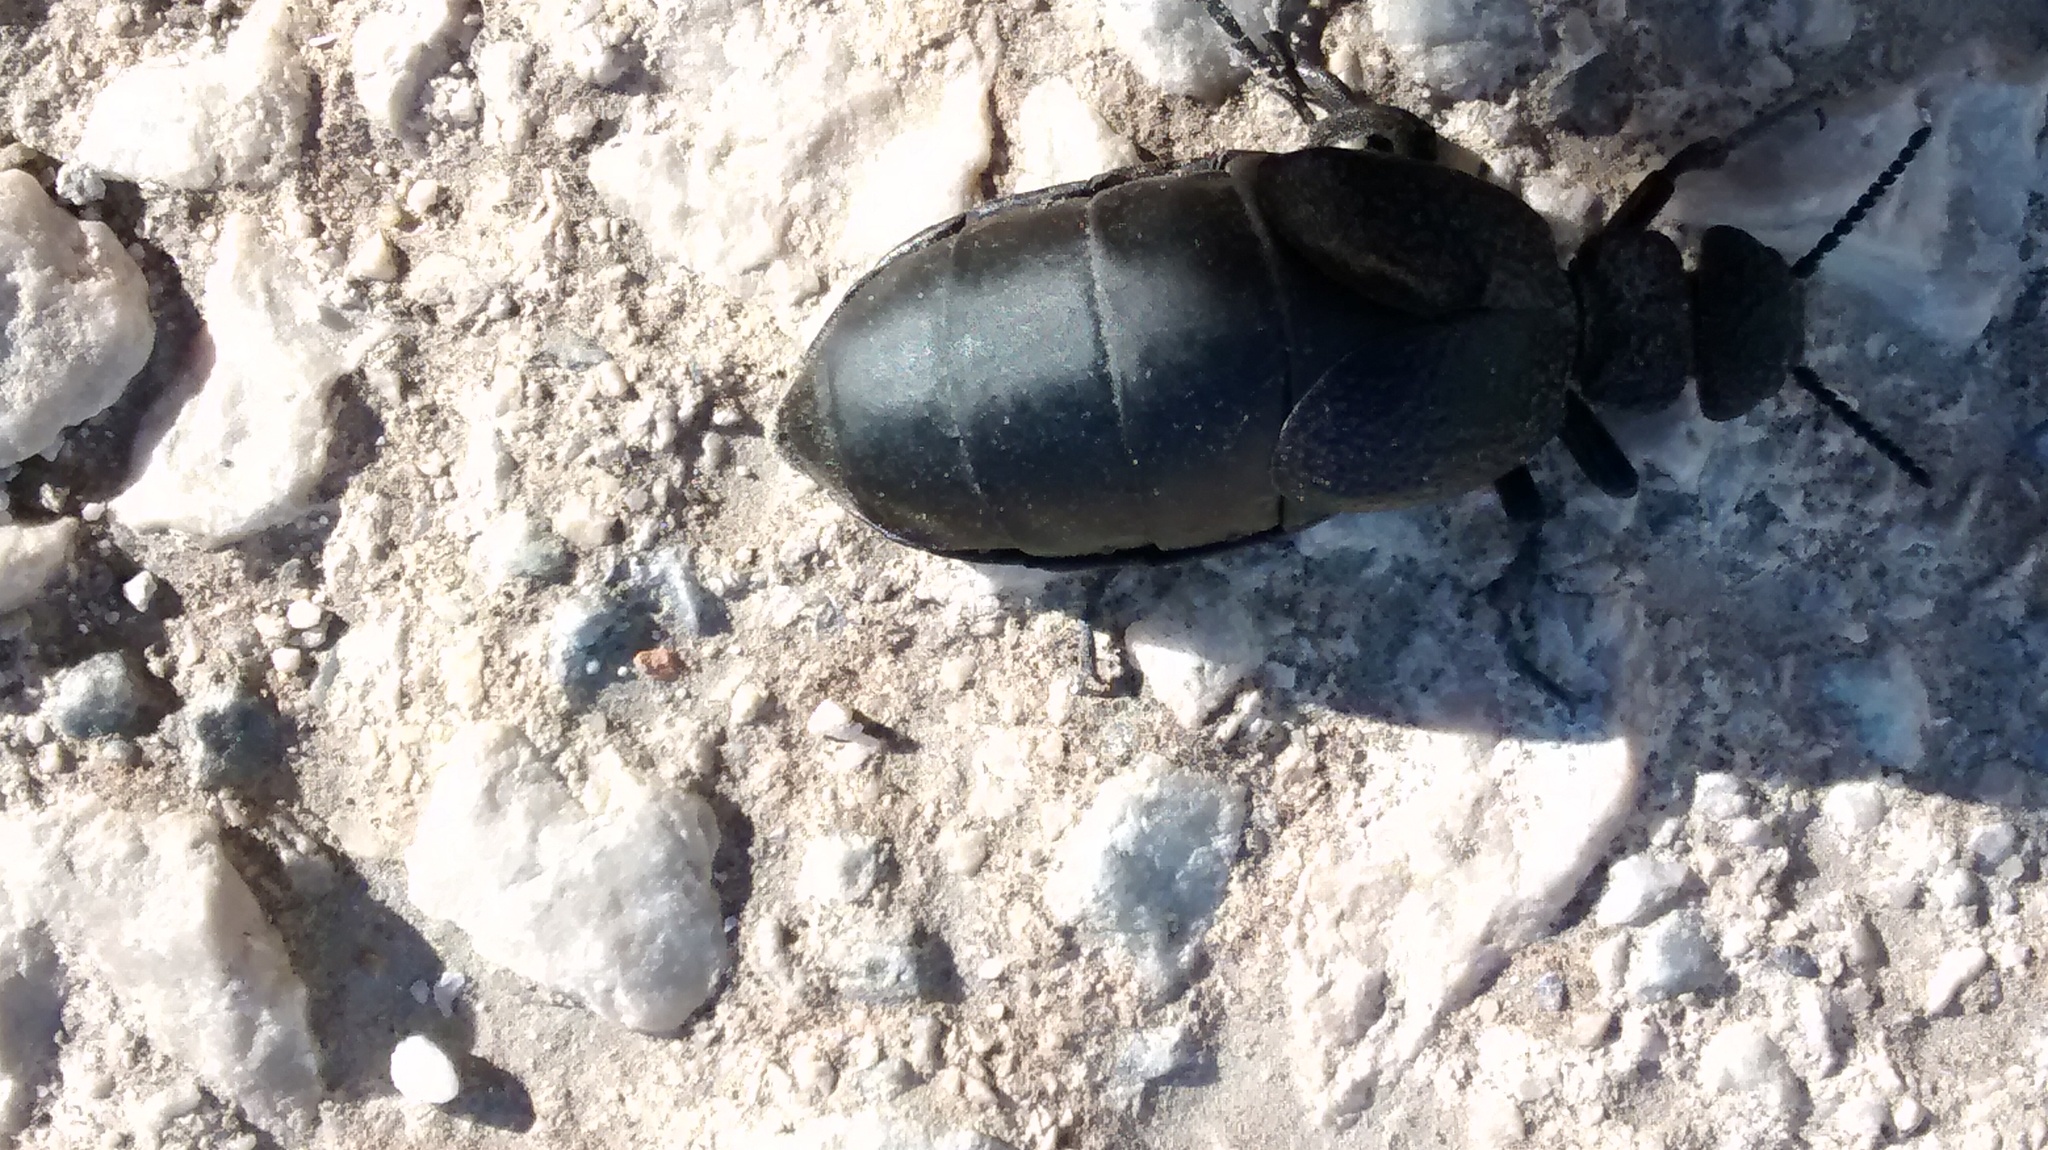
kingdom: Animalia
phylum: Arthropoda
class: Insecta
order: Coleoptera
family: Meloidae
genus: Meloe
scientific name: Meloe tuccius
